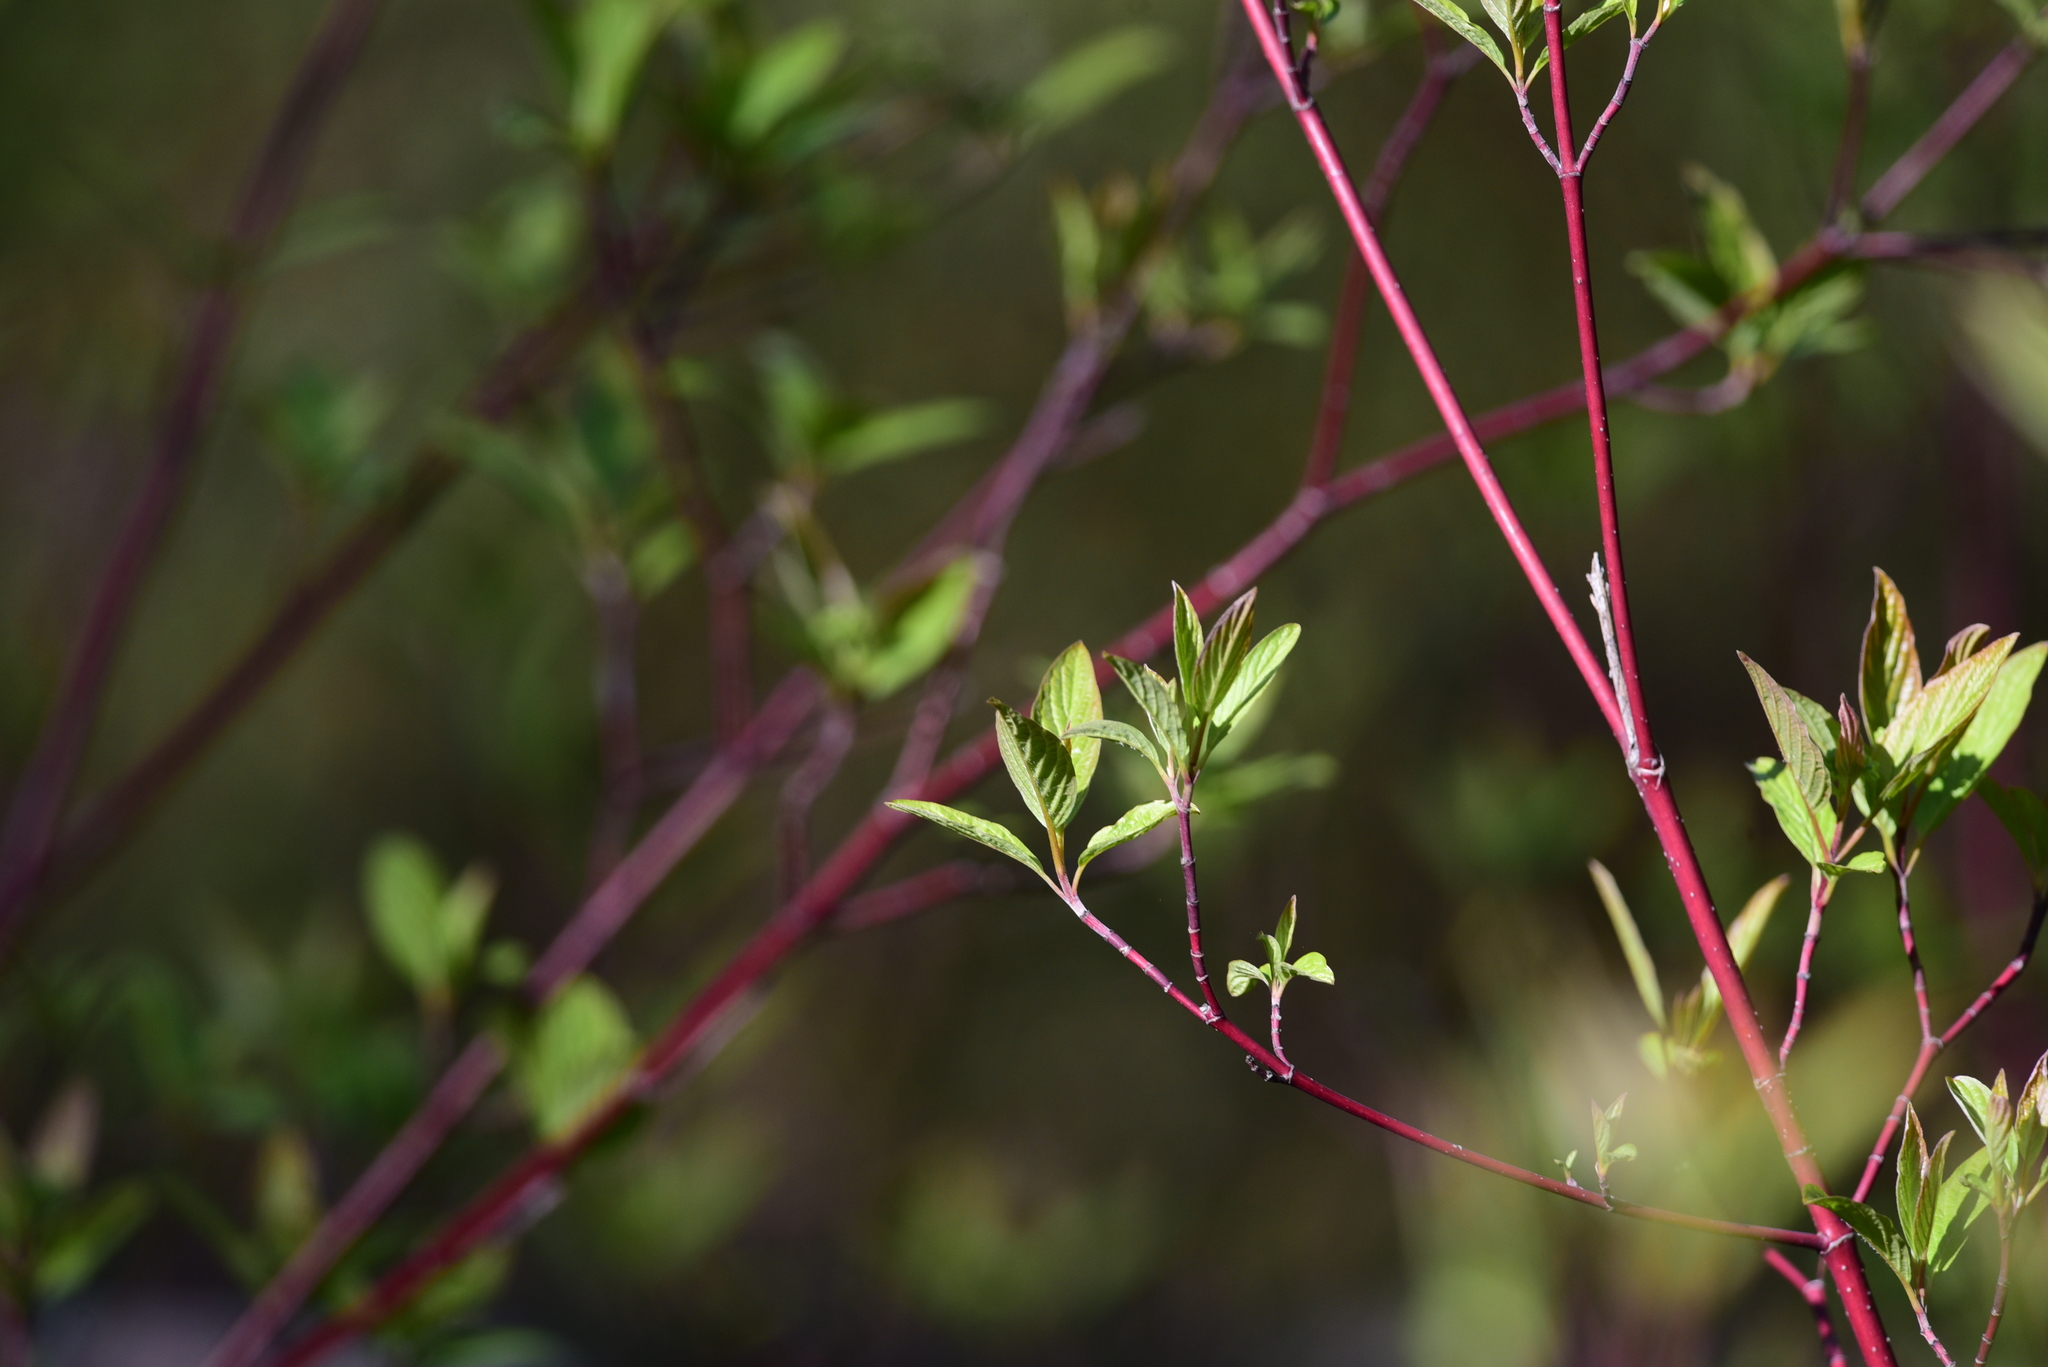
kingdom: Plantae
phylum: Tracheophyta
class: Magnoliopsida
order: Cornales
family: Cornaceae
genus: Cornus
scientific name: Cornus sericea
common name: Red-osier dogwood
